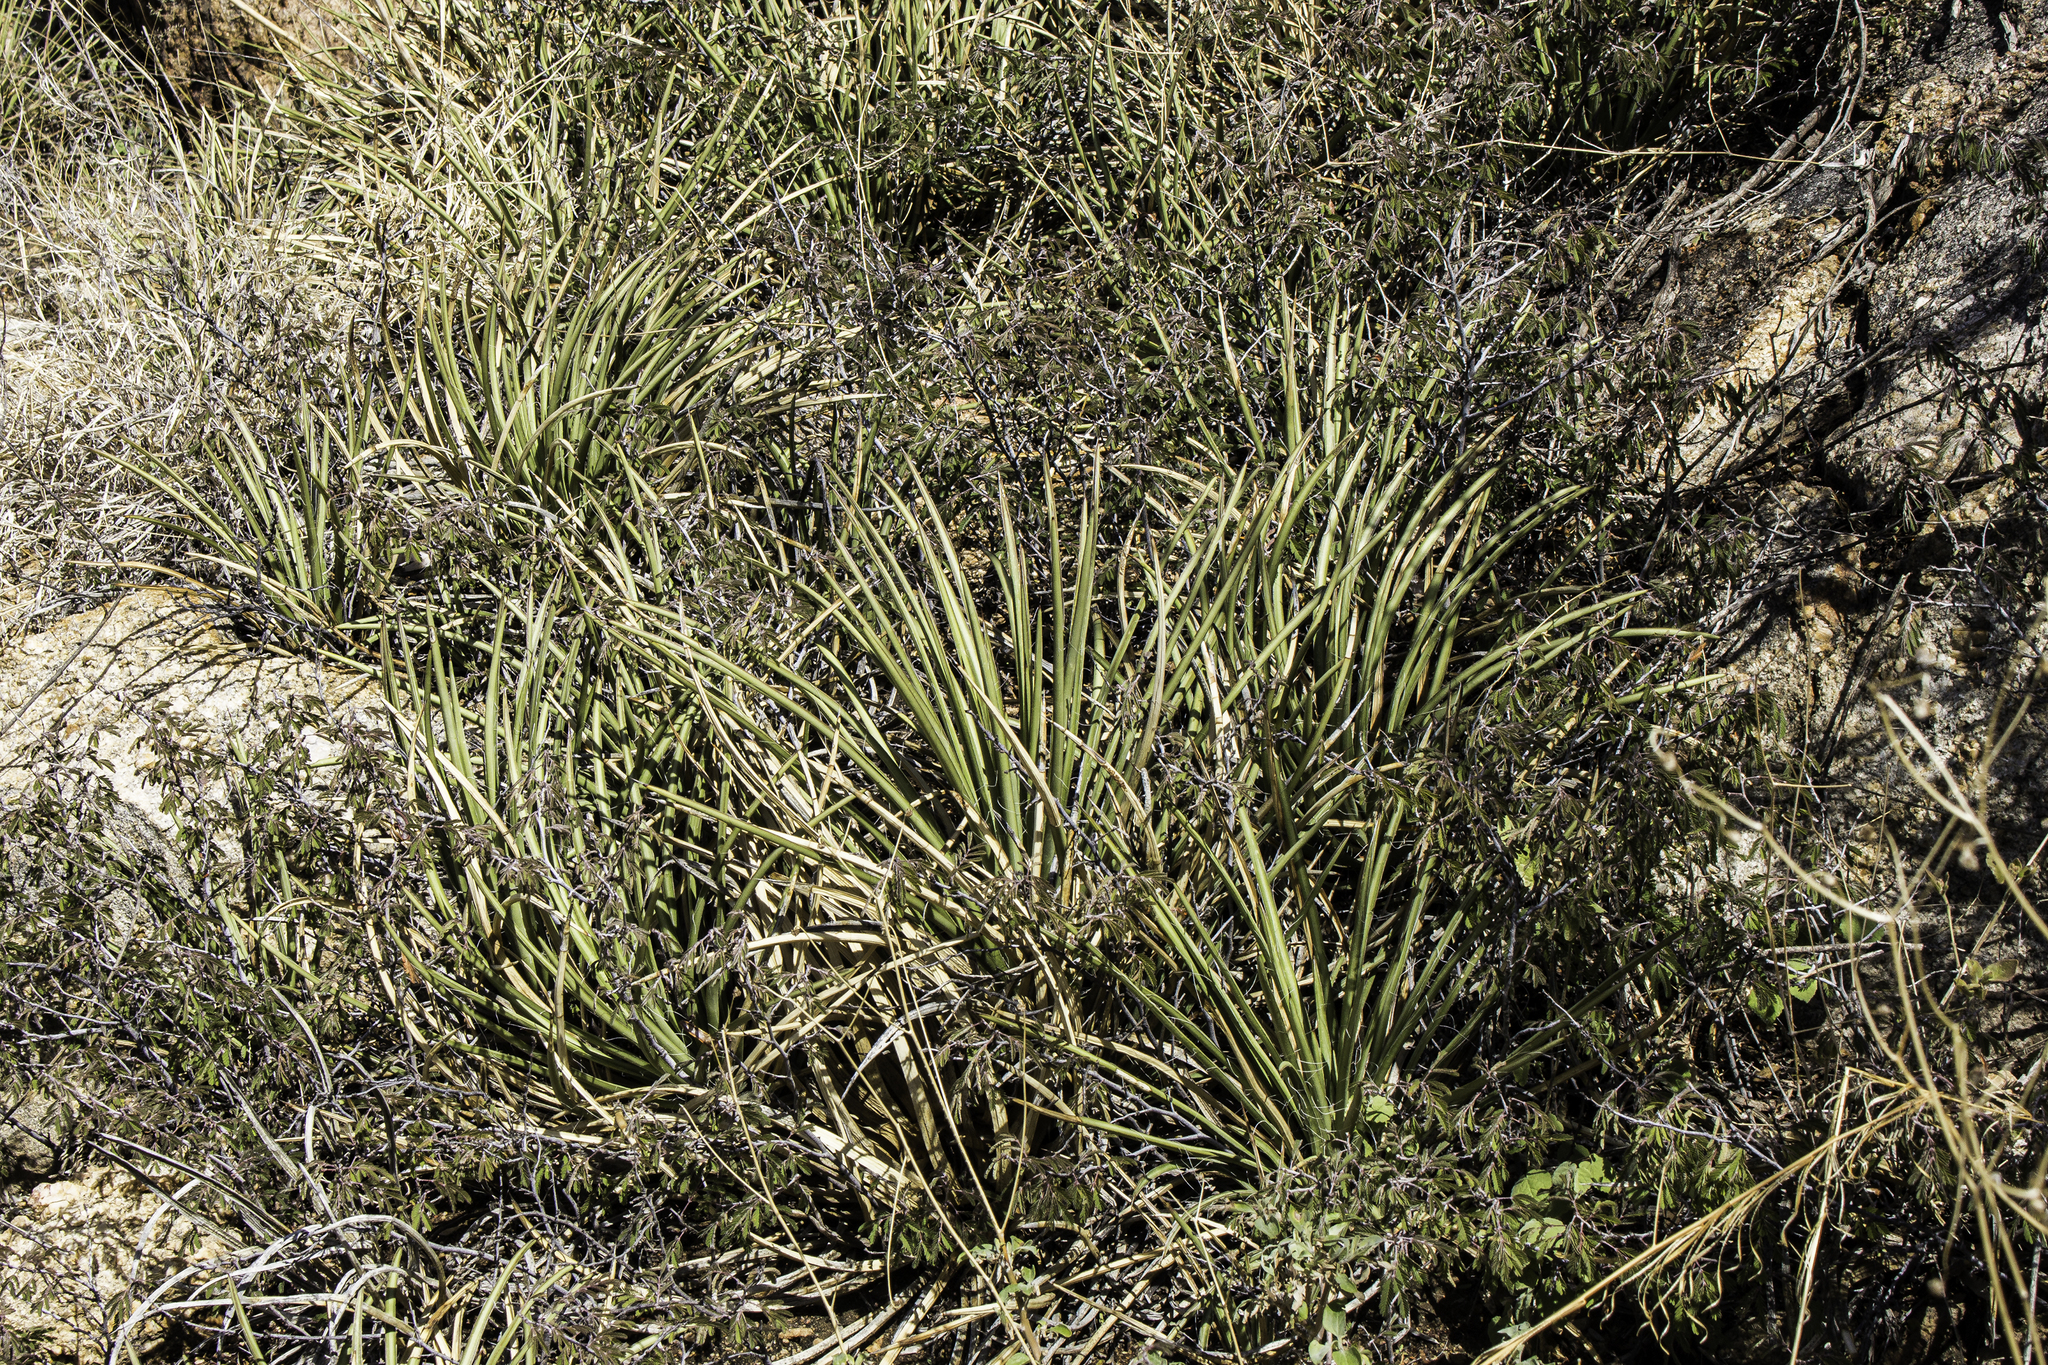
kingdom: Plantae
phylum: Tracheophyta
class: Liliopsida
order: Asparagales
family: Asparagaceae
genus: Agave
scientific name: Agave schottii
